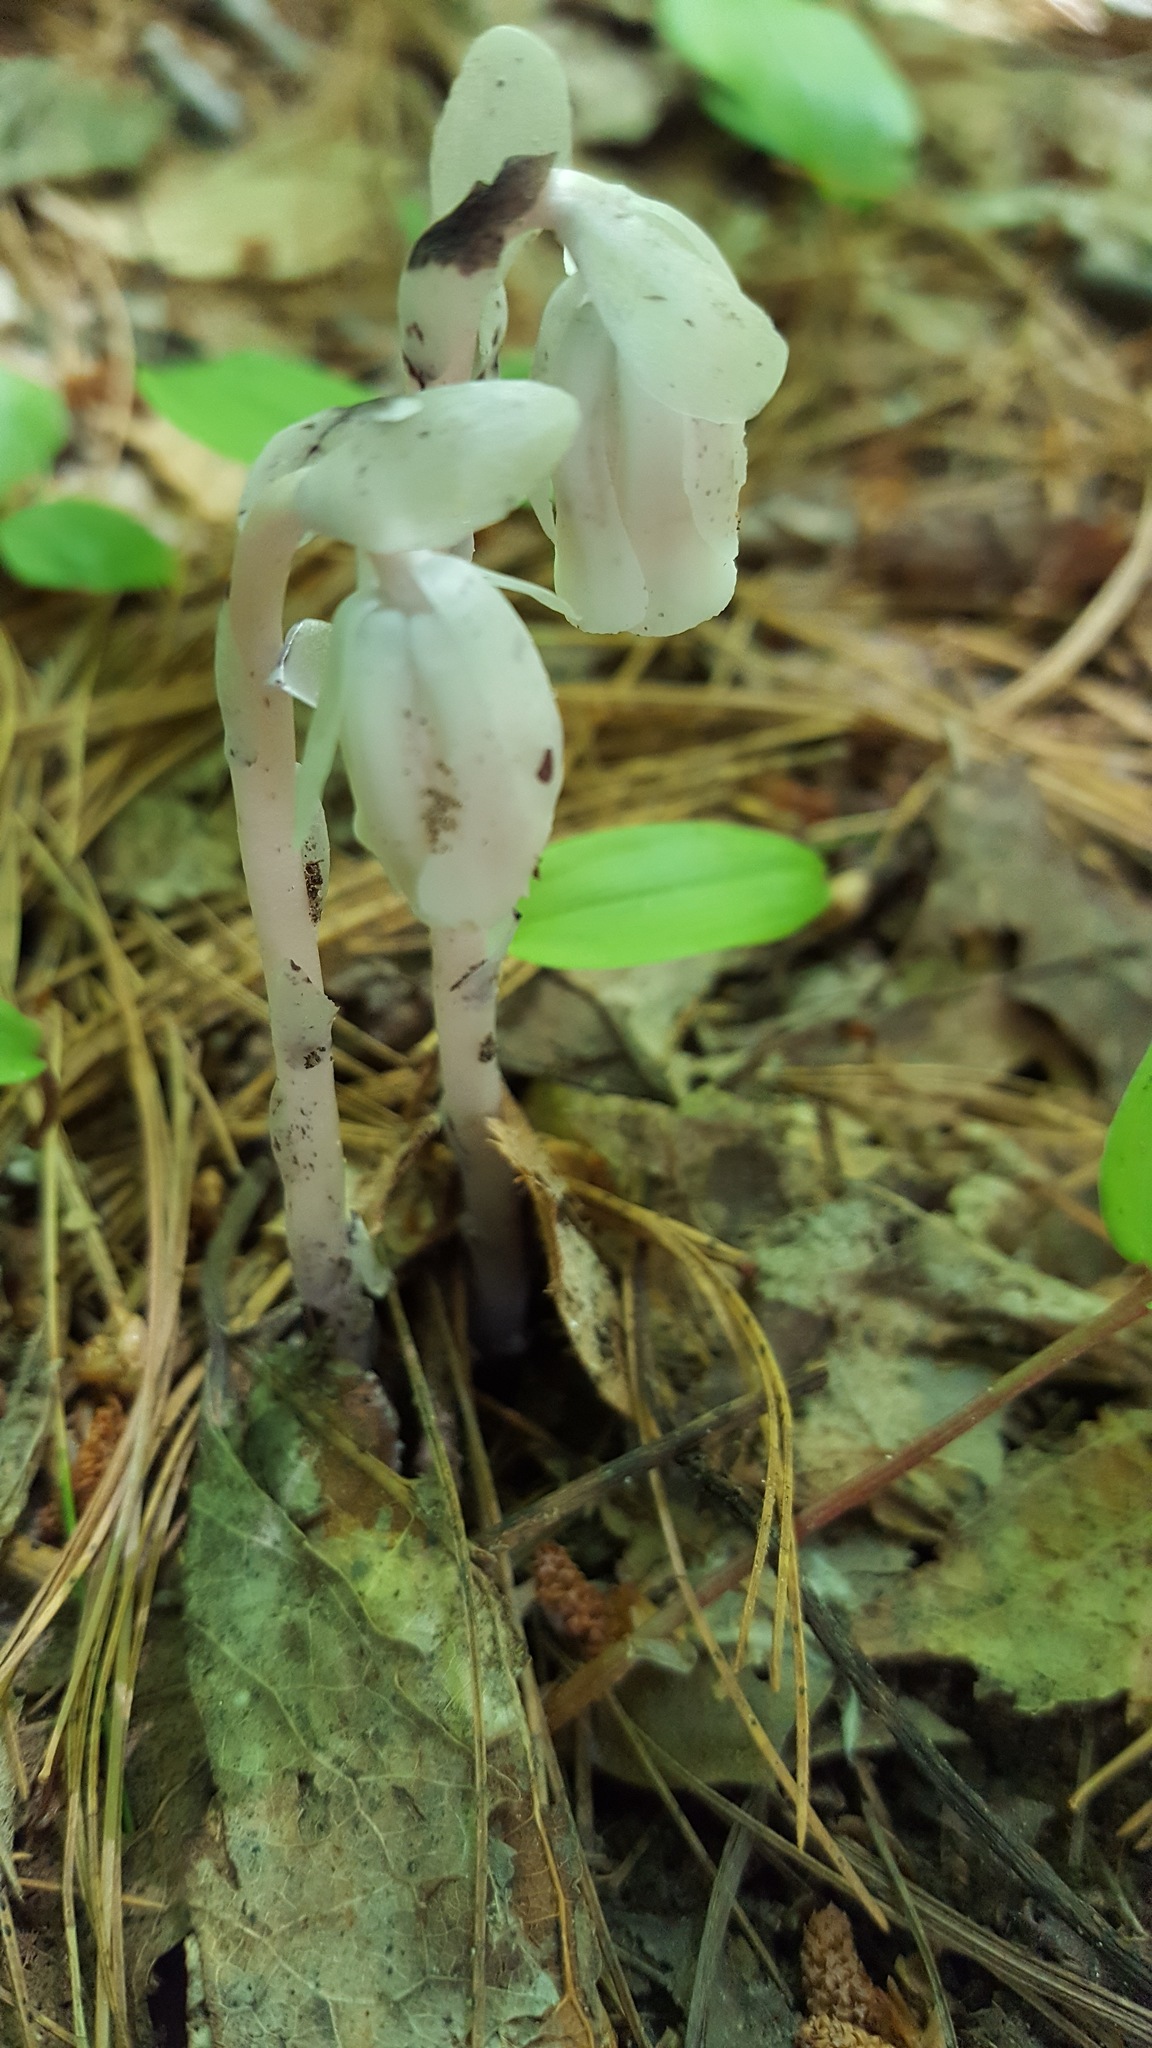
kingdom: Plantae
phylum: Tracheophyta
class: Magnoliopsida
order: Ericales
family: Ericaceae
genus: Monotropa
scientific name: Monotropa uniflora
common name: Convulsion root
